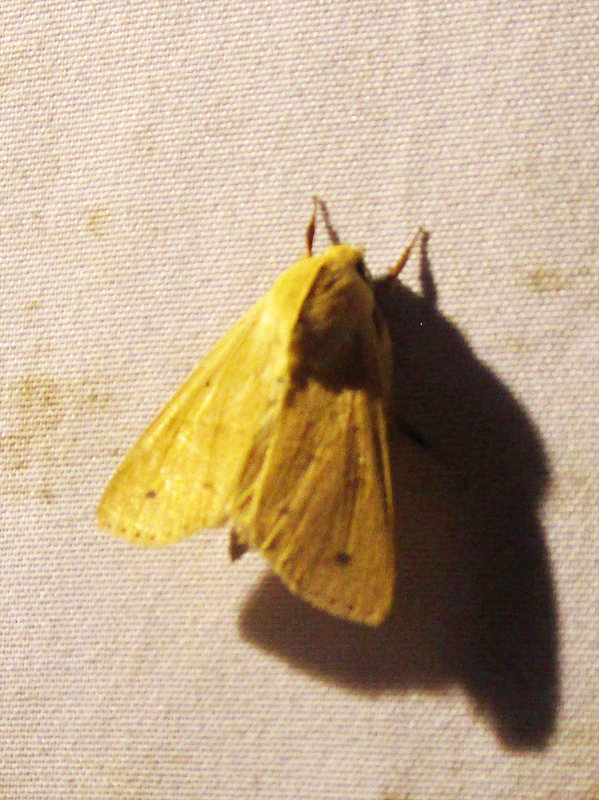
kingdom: Animalia
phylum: Arthropoda
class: Insecta
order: Lepidoptera
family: Noctuidae
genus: Helicoverpa
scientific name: Helicoverpa zea
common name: Bollworm
